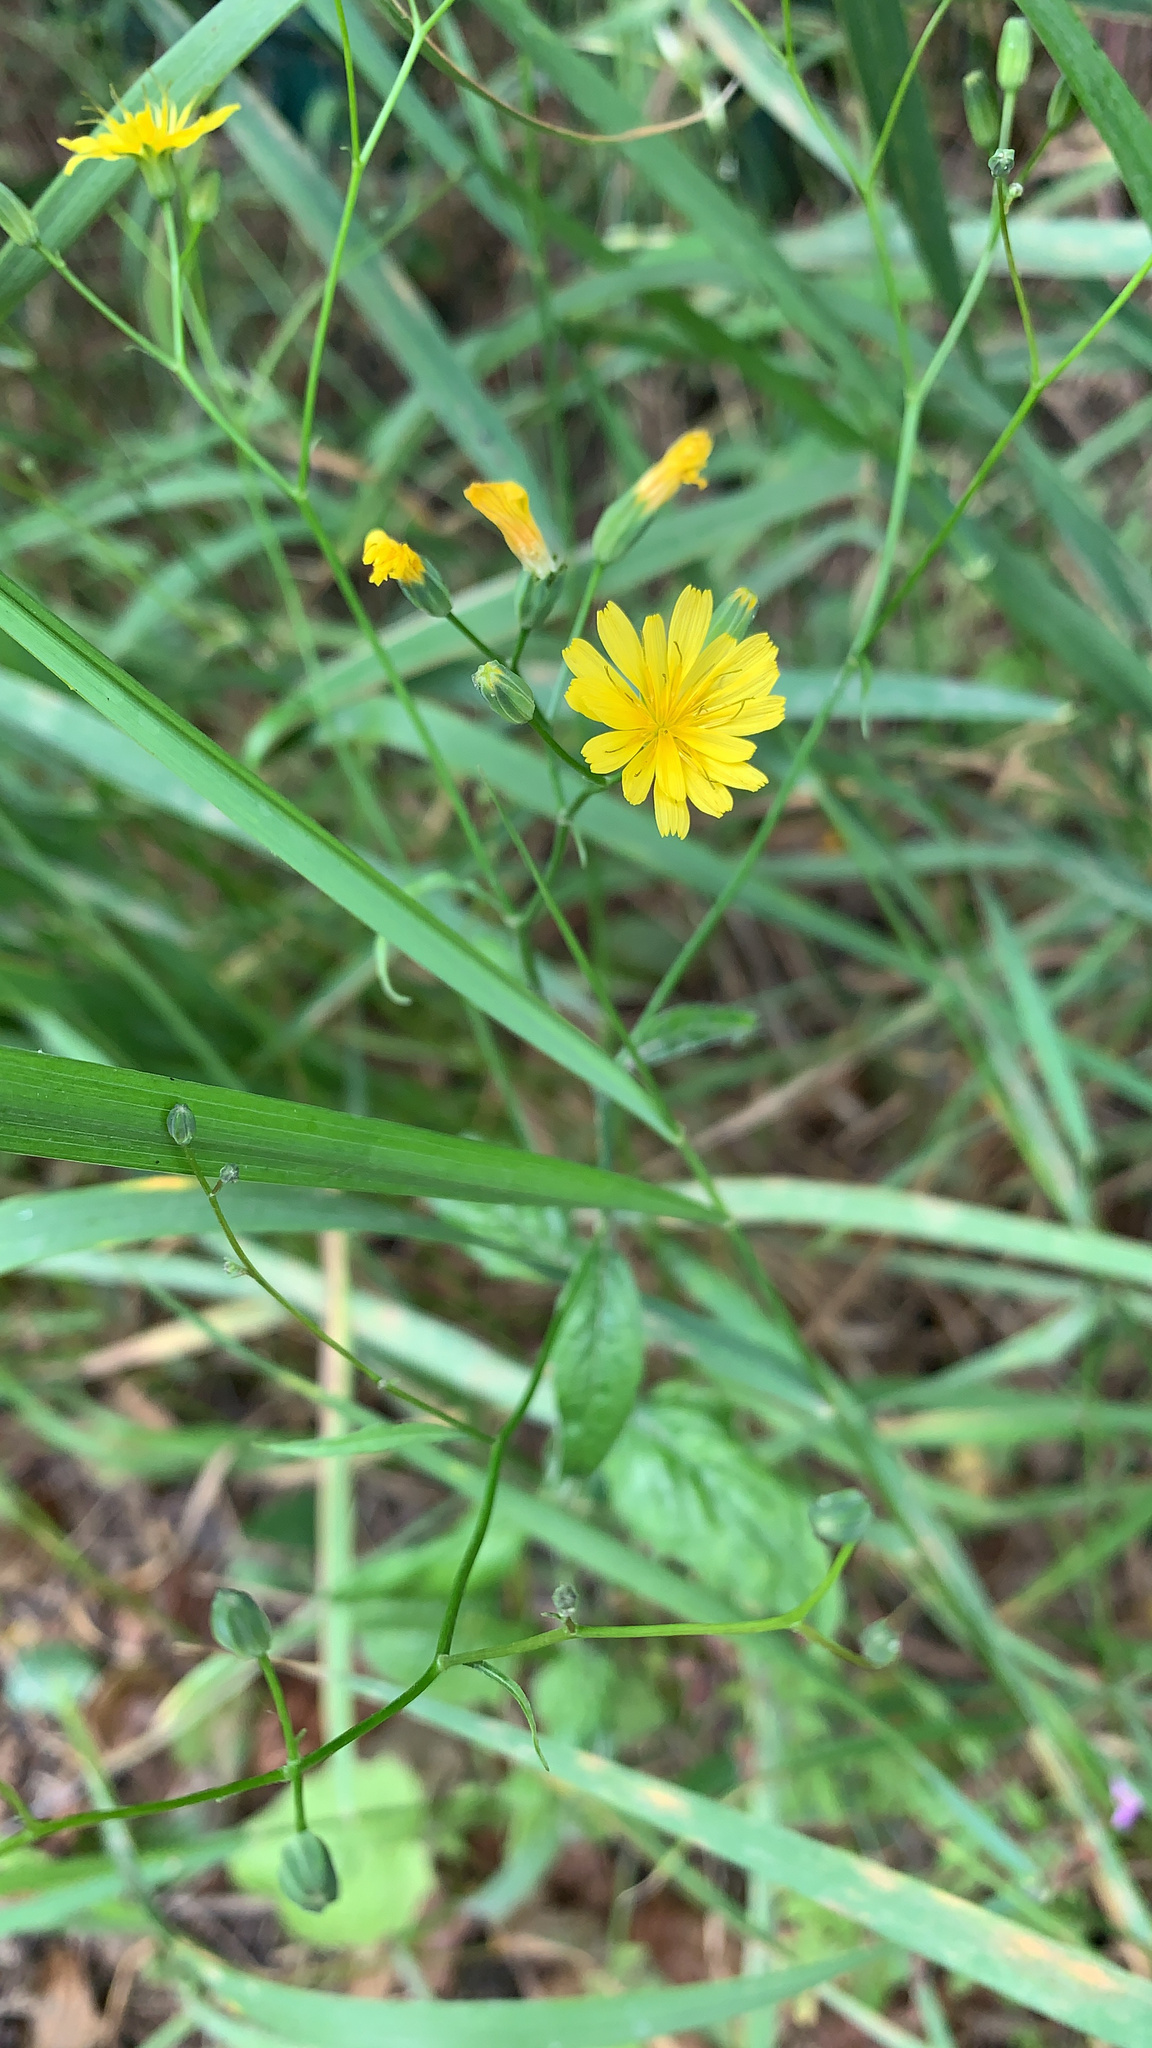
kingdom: Plantae
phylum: Tracheophyta
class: Magnoliopsida
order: Asterales
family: Asteraceae
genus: Lapsana
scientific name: Lapsana communis
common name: Nipplewort
